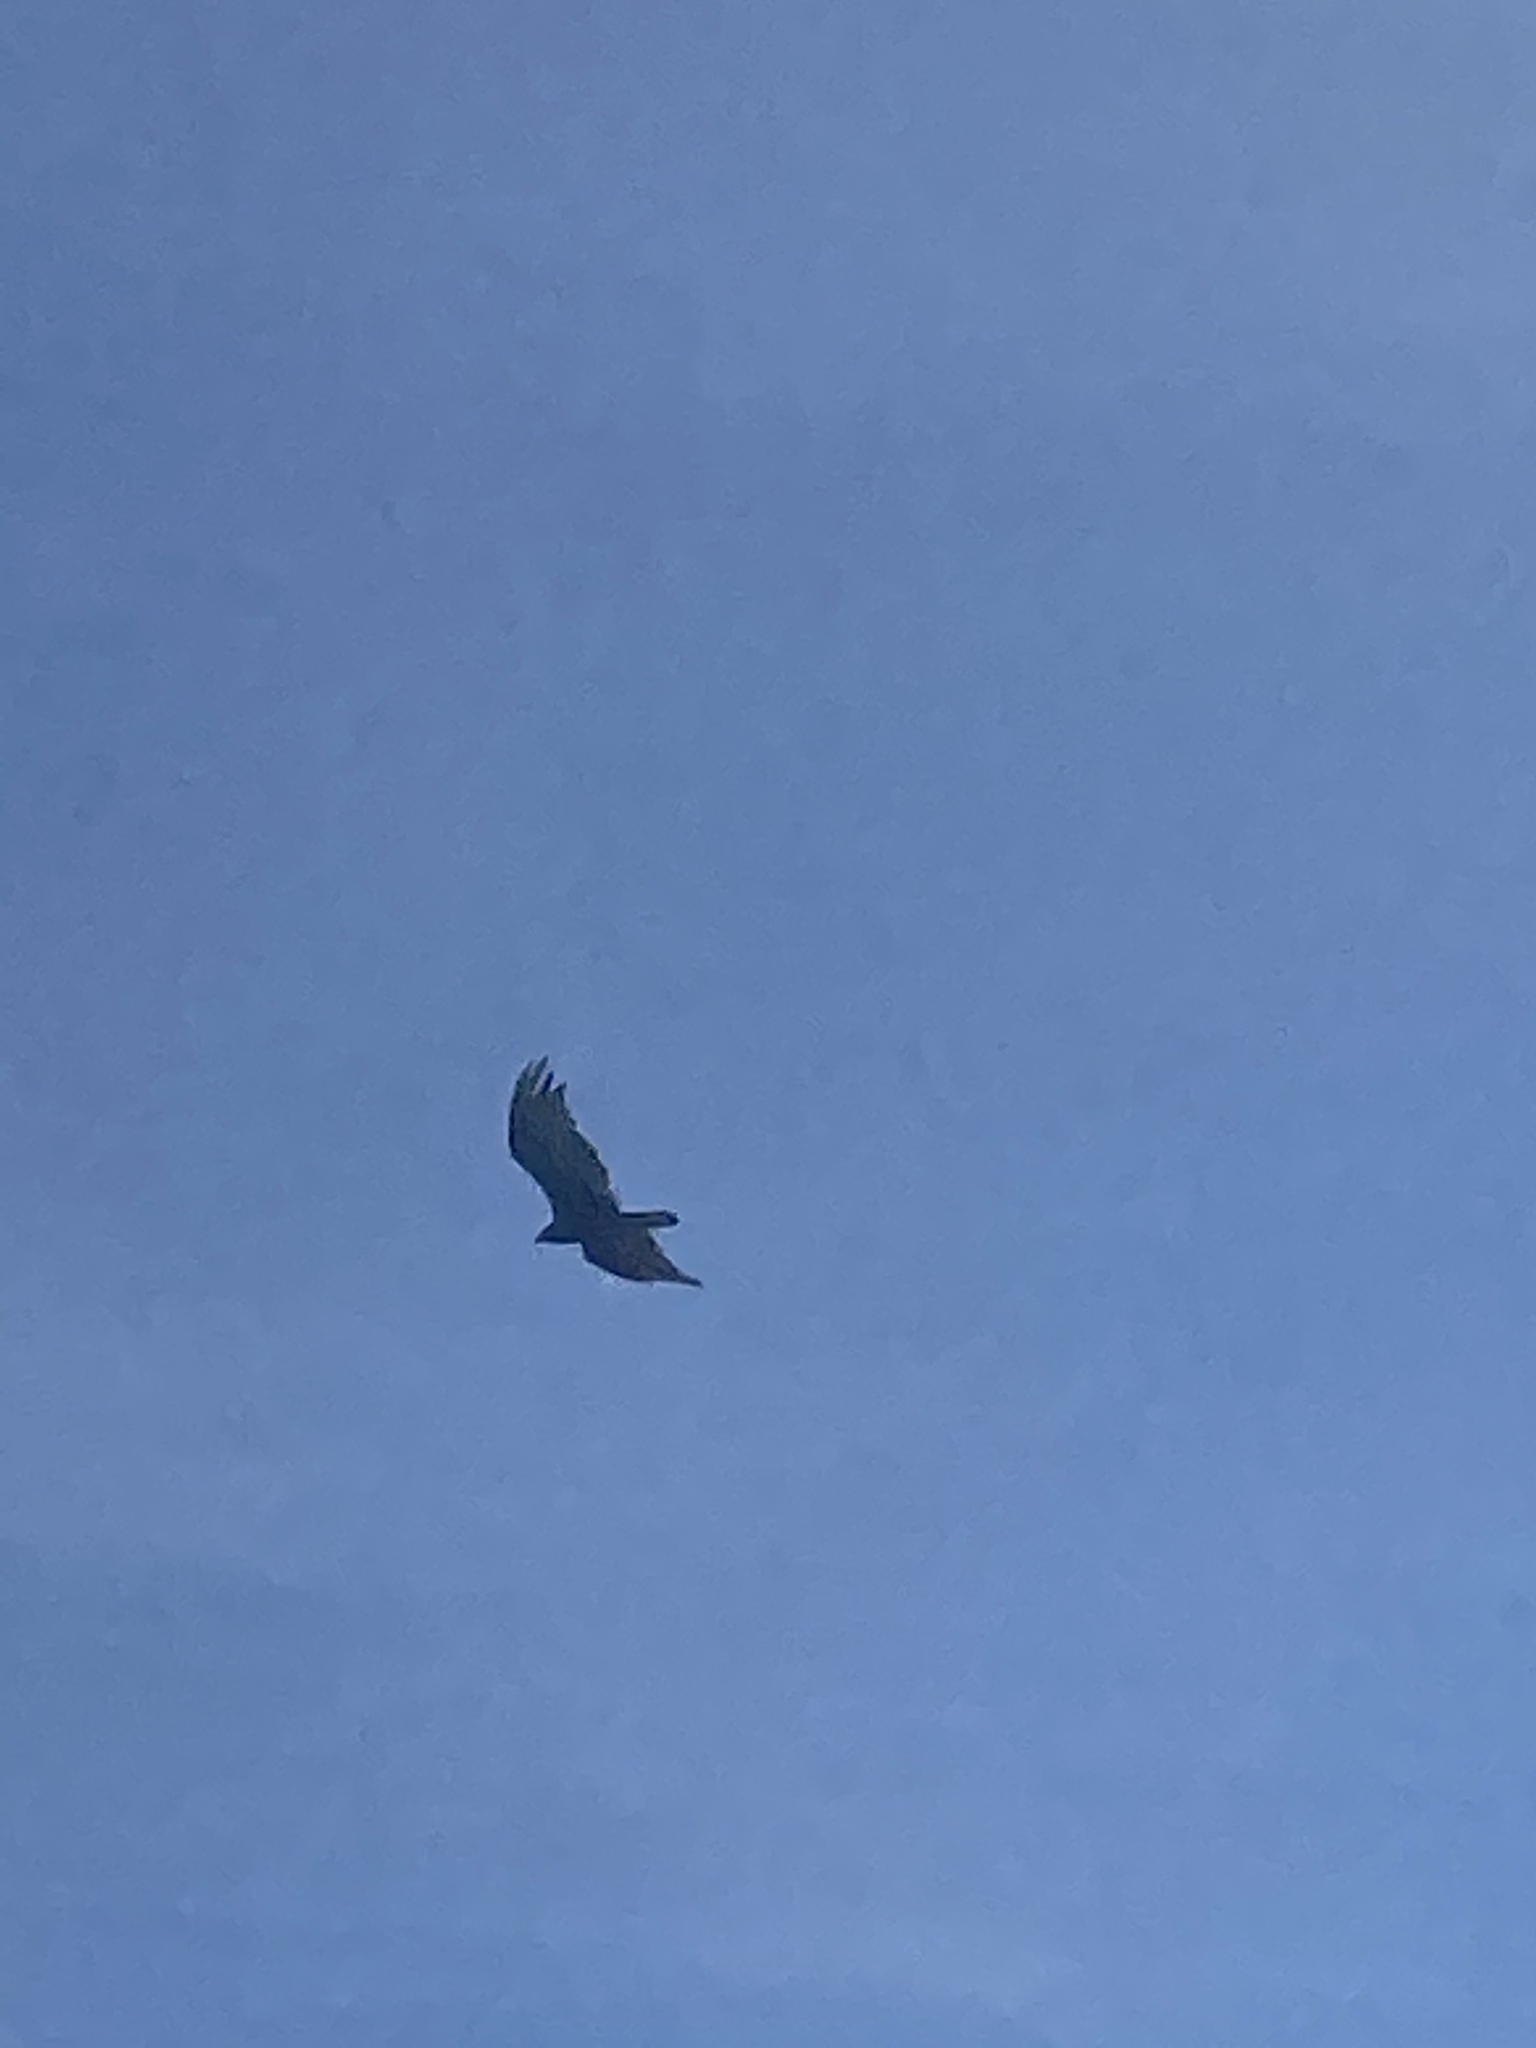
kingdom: Animalia
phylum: Chordata
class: Aves
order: Accipitriformes
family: Cathartidae
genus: Cathartes
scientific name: Cathartes aura
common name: Turkey vulture
